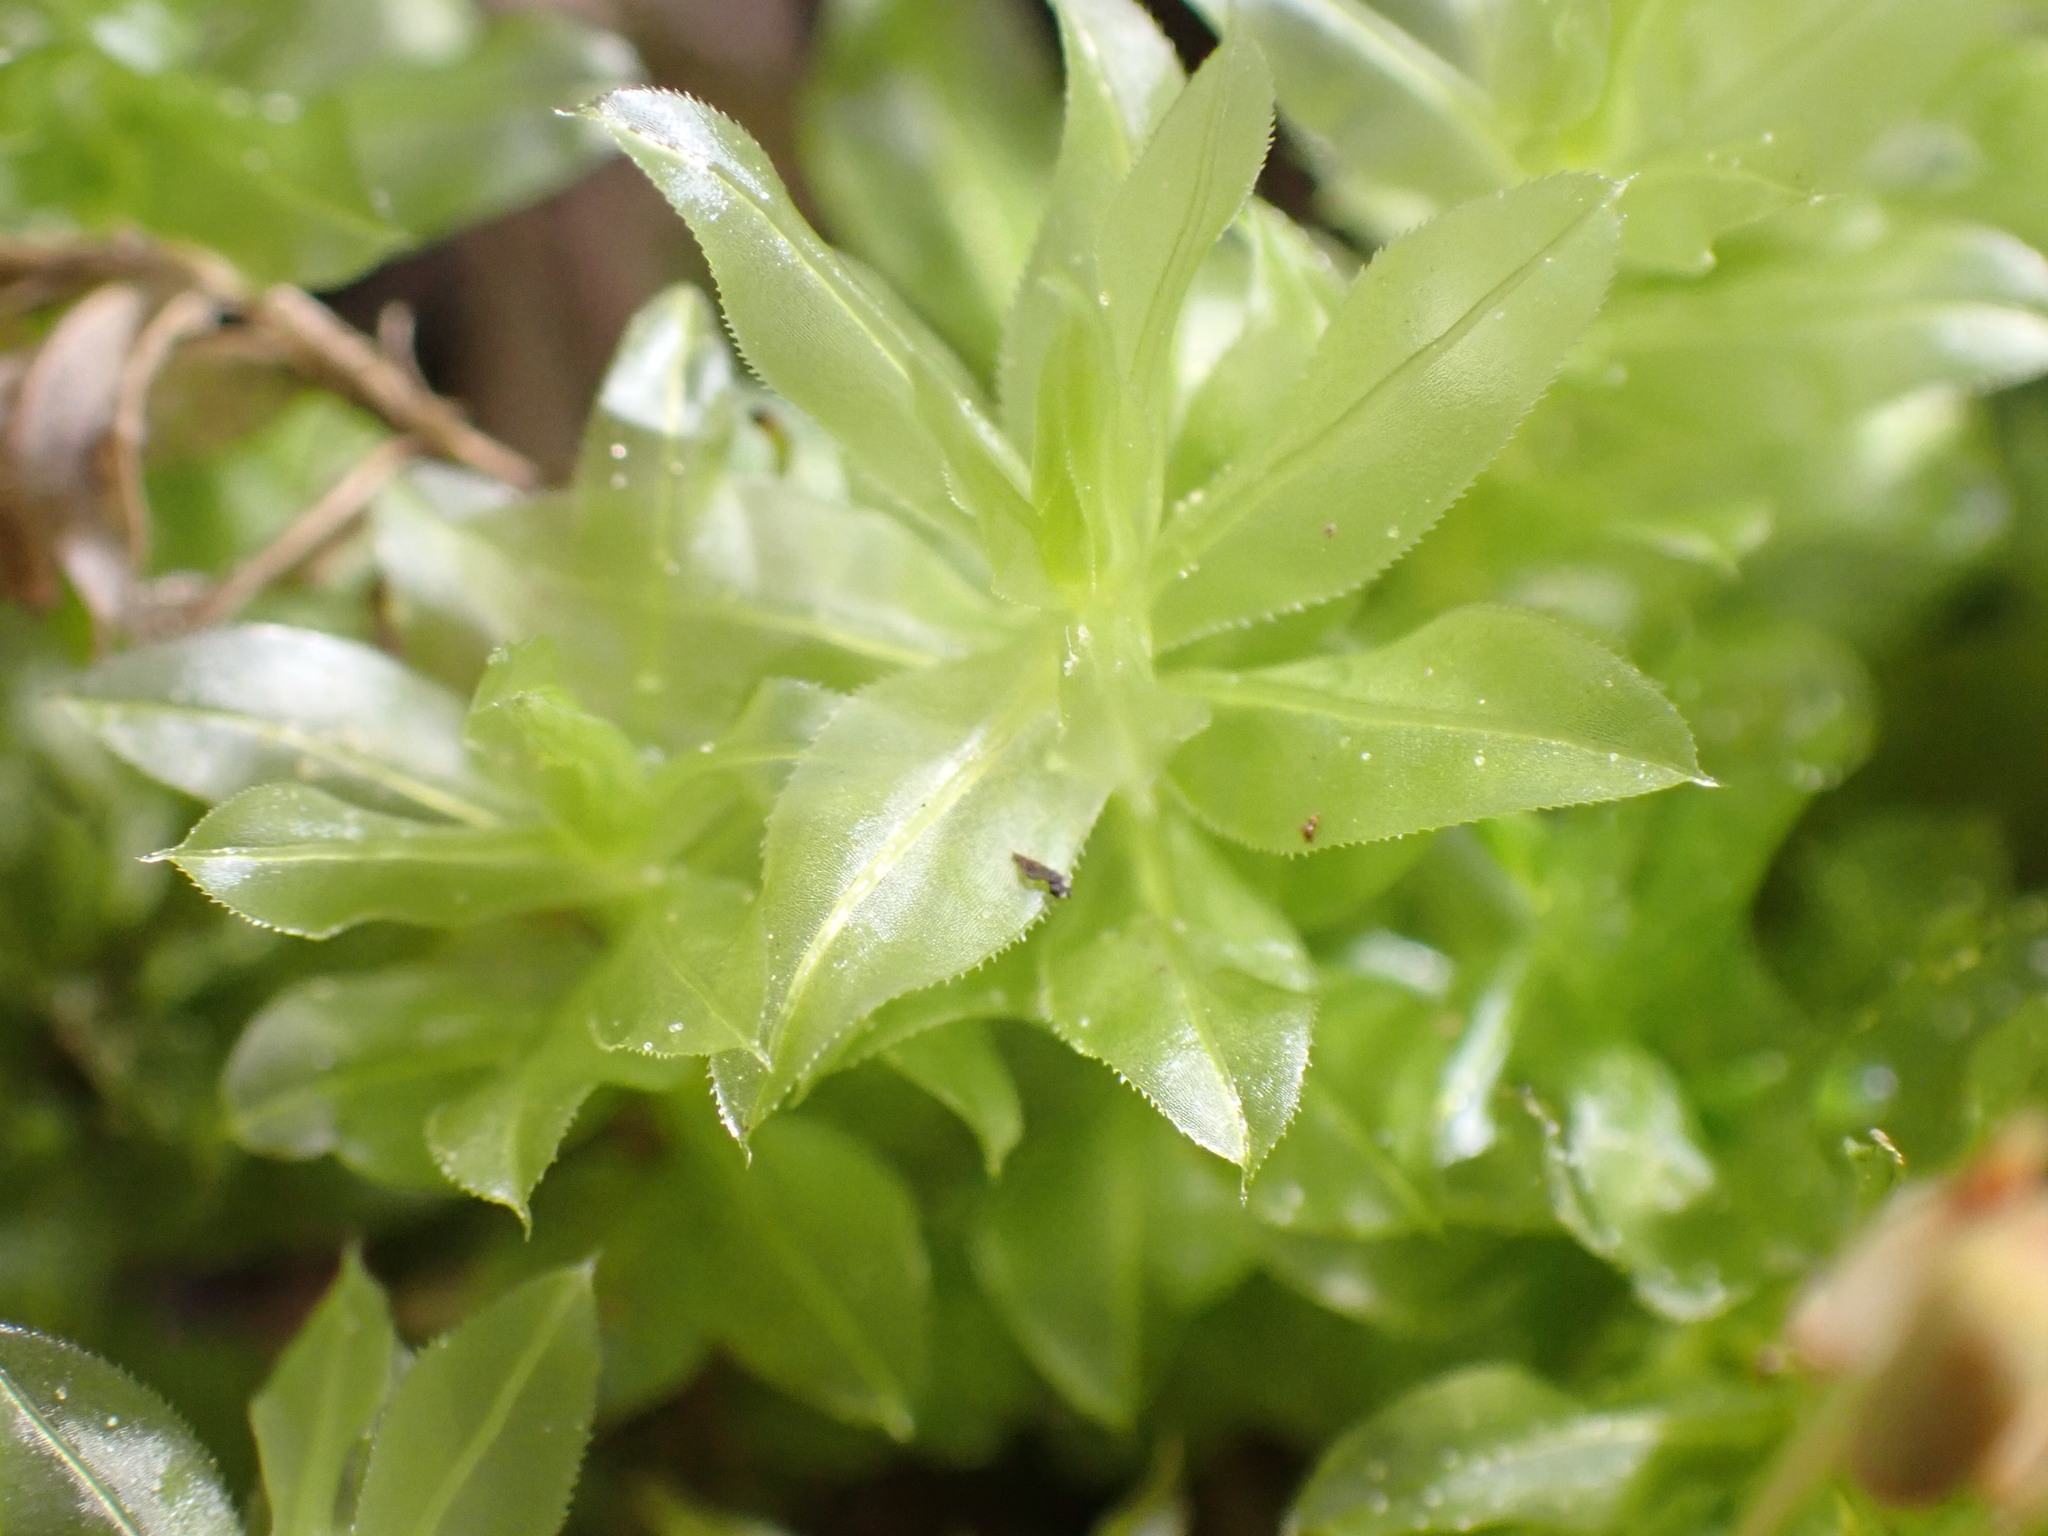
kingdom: Plantae
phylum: Bryophyta
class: Bryopsida
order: Bryales
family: Mniaceae
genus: Plagiomnium
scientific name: Plagiomnium insigne
